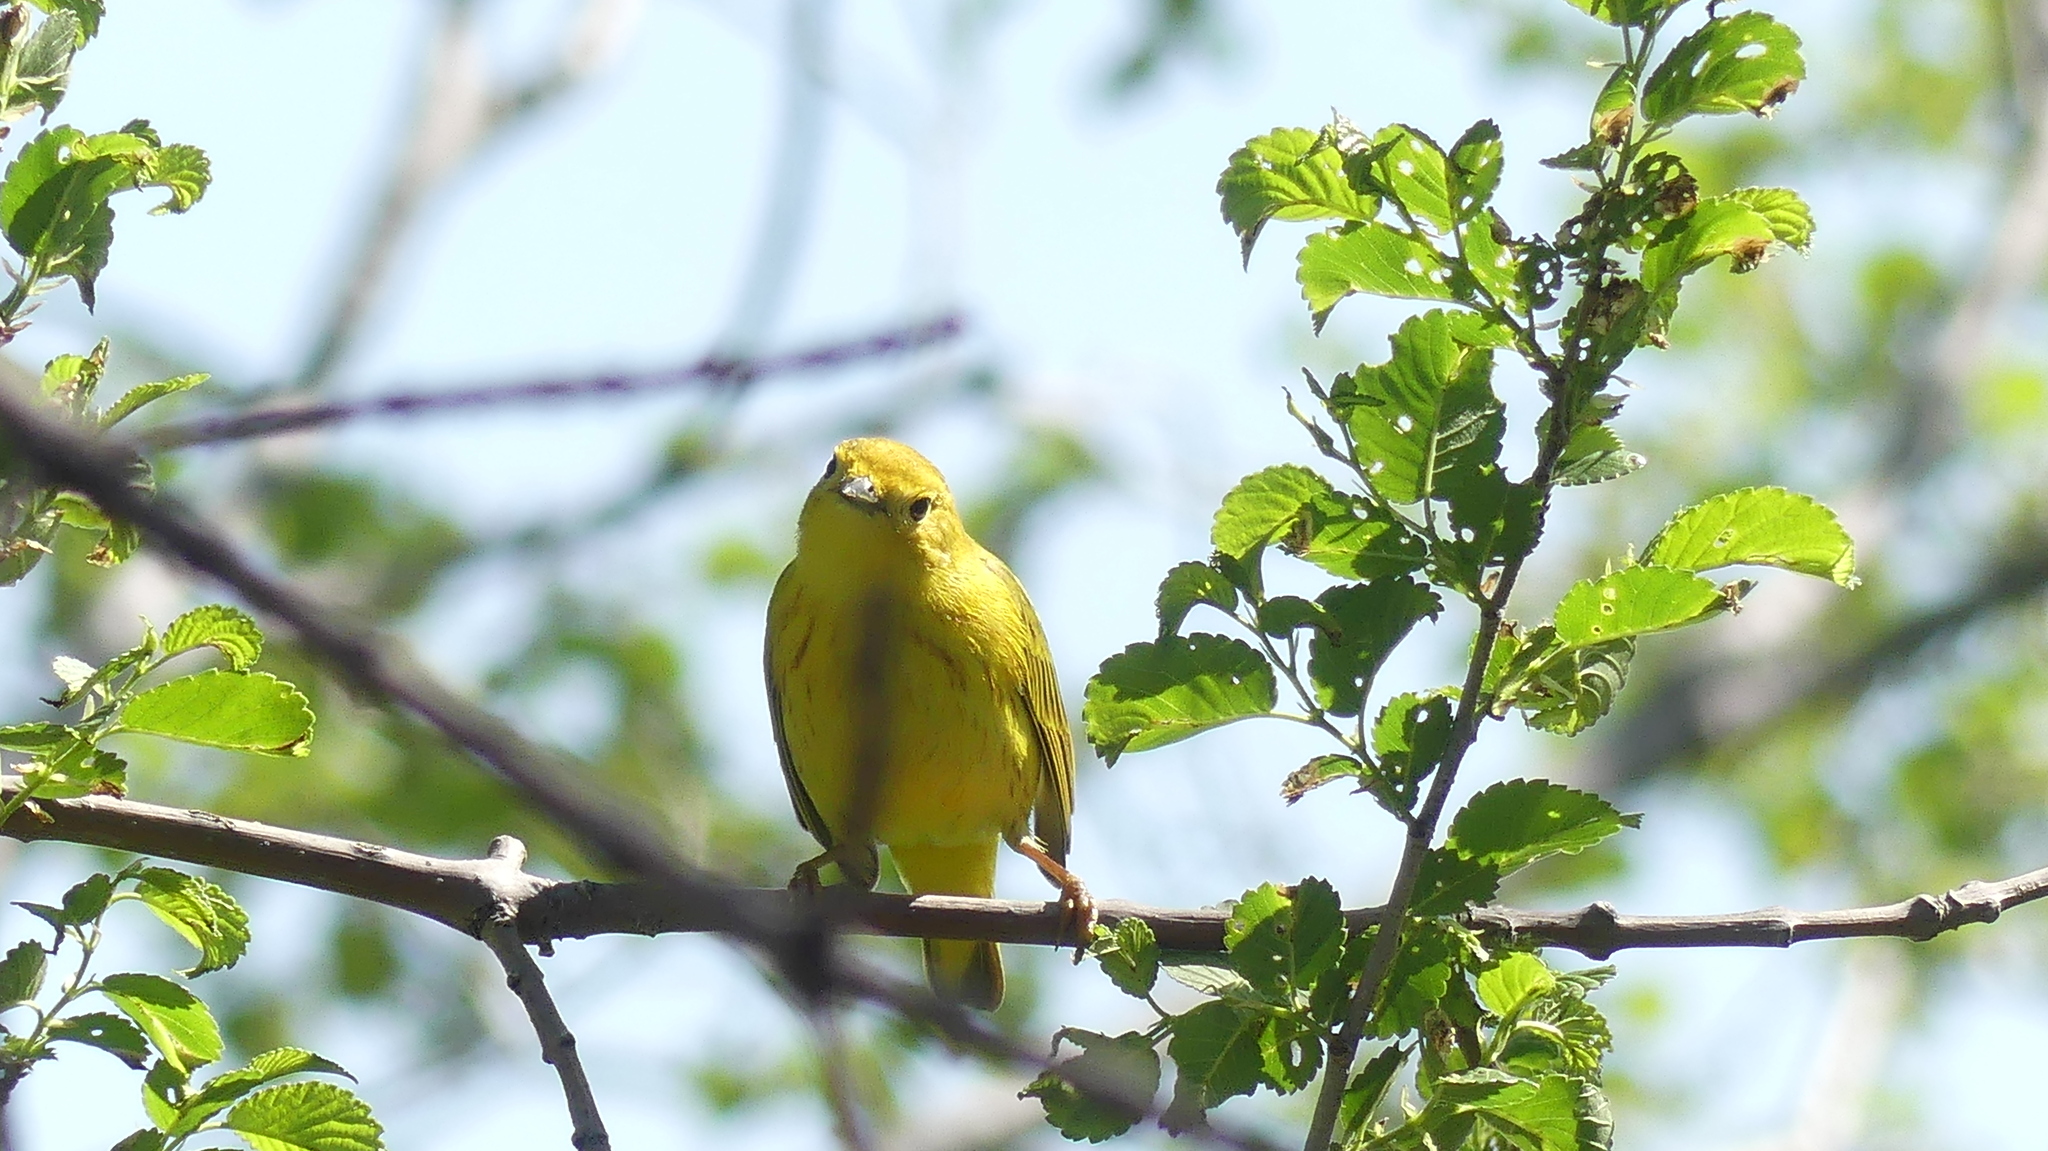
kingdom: Animalia
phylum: Chordata
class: Aves
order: Passeriformes
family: Parulidae
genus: Setophaga
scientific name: Setophaga petechia
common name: Yellow warbler
